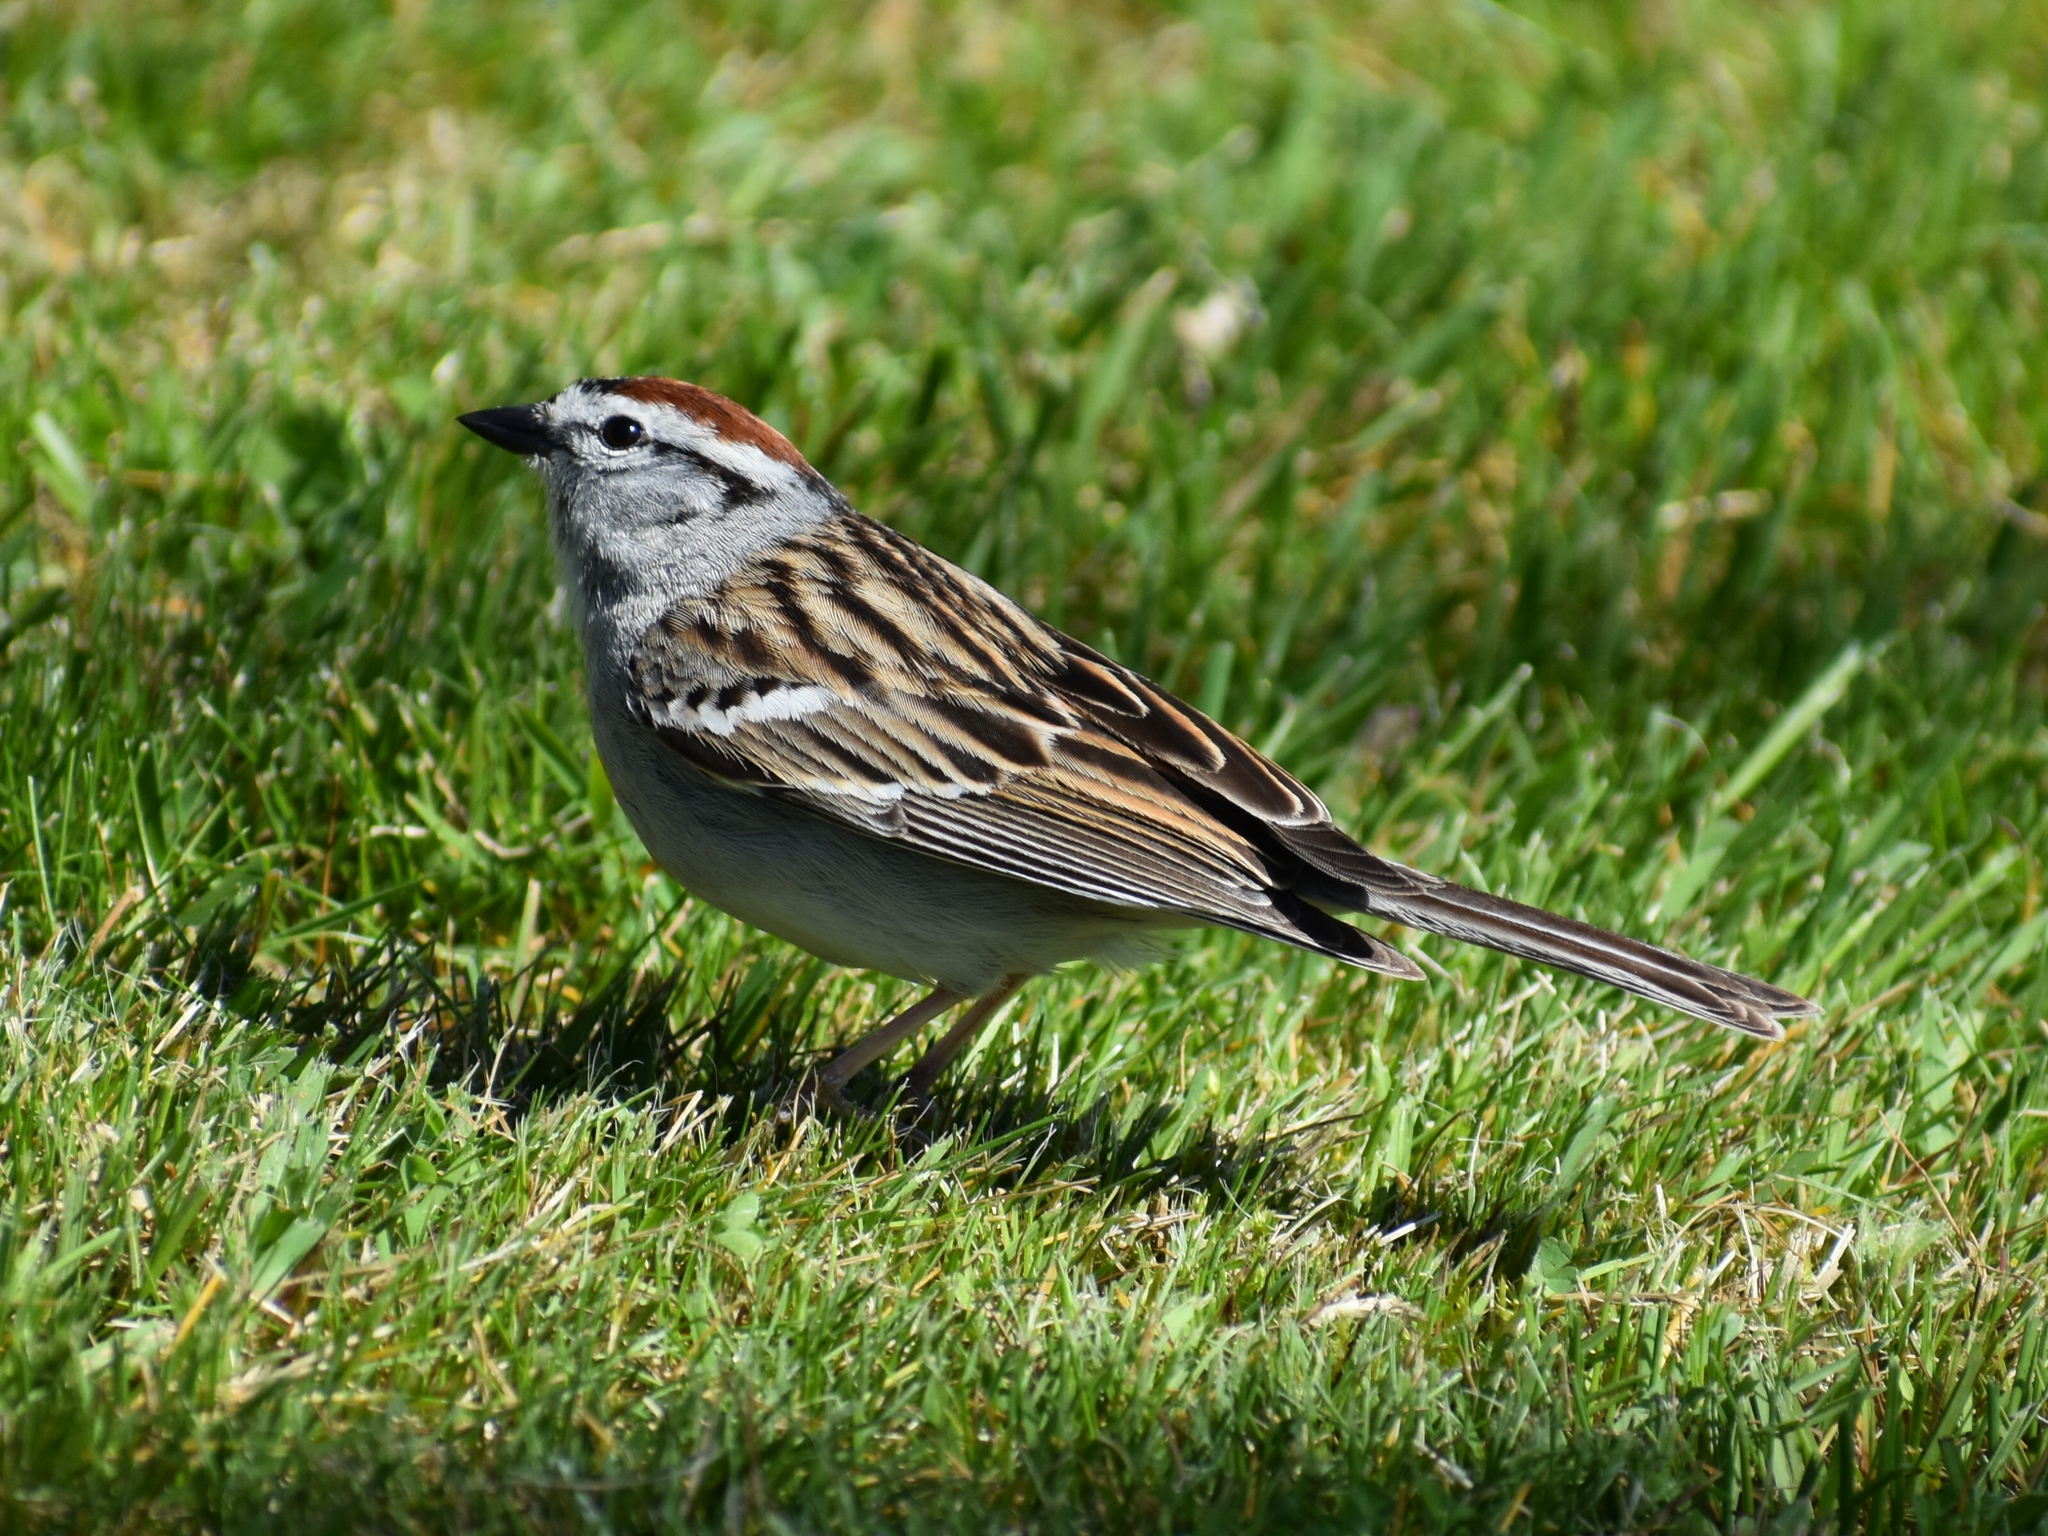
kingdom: Animalia
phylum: Chordata
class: Aves
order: Passeriformes
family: Passerellidae
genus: Spizella
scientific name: Spizella passerina
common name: Chipping sparrow
